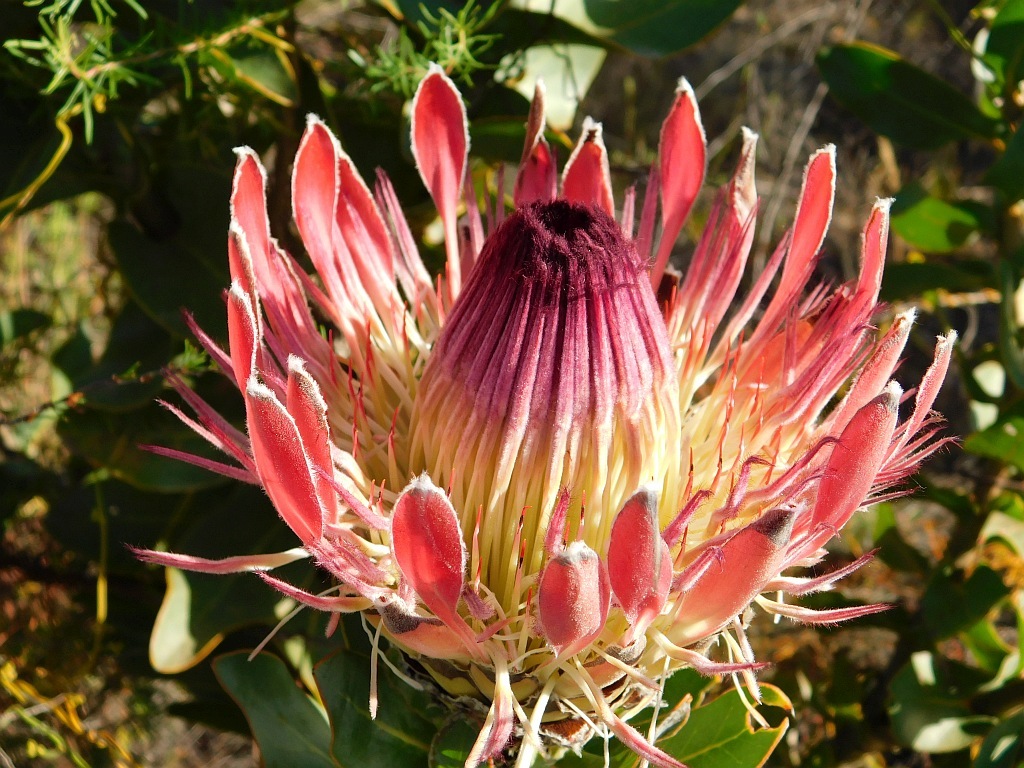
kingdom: Plantae
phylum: Tracheophyta
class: Magnoliopsida
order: Proteales
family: Proteaceae
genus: Protea
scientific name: Protea eximia
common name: Broad-leaved sugarbush
